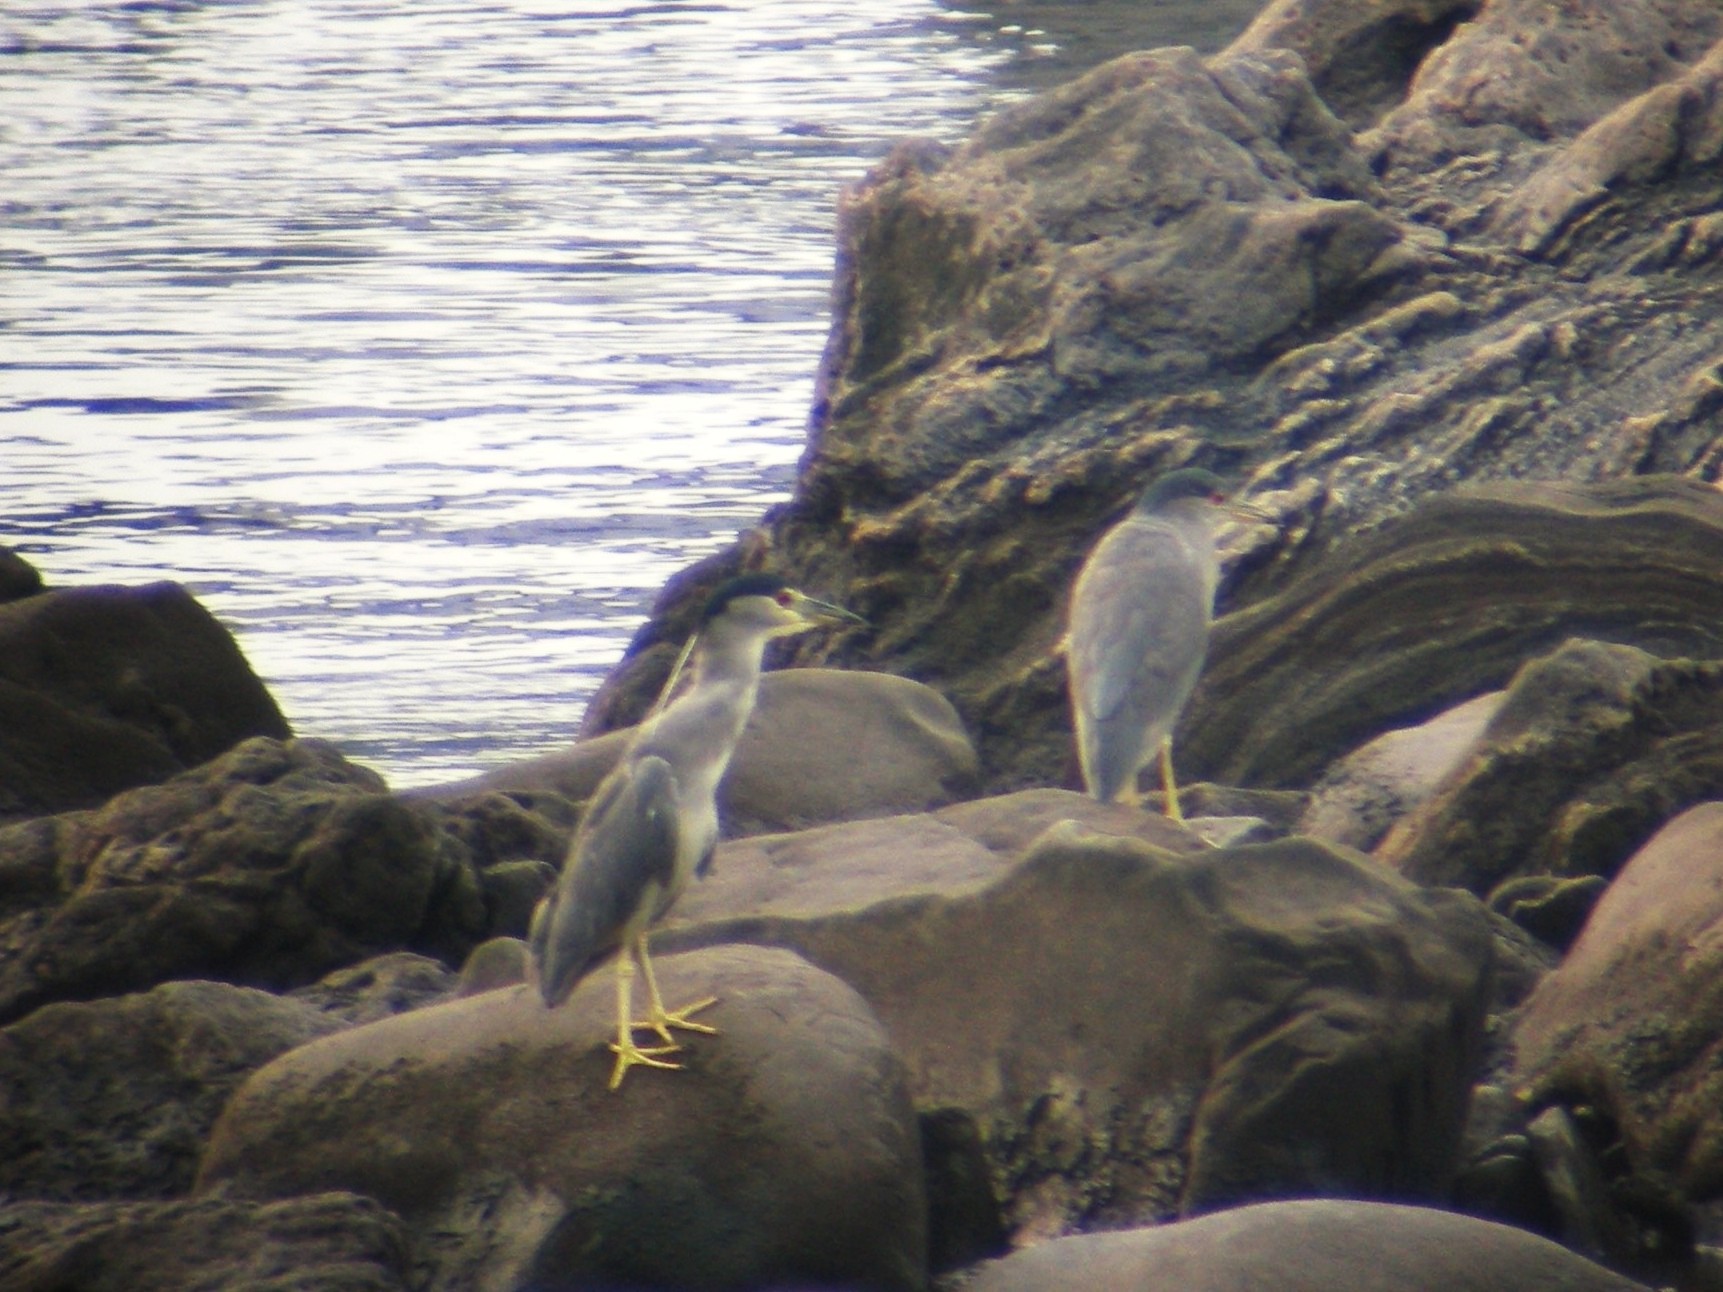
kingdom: Animalia
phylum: Chordata
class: Aves
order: Pelecaniformes
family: Ardeidae
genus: Nycticorax
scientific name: Nycticorax nycticorax
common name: Black-crowned night heron
